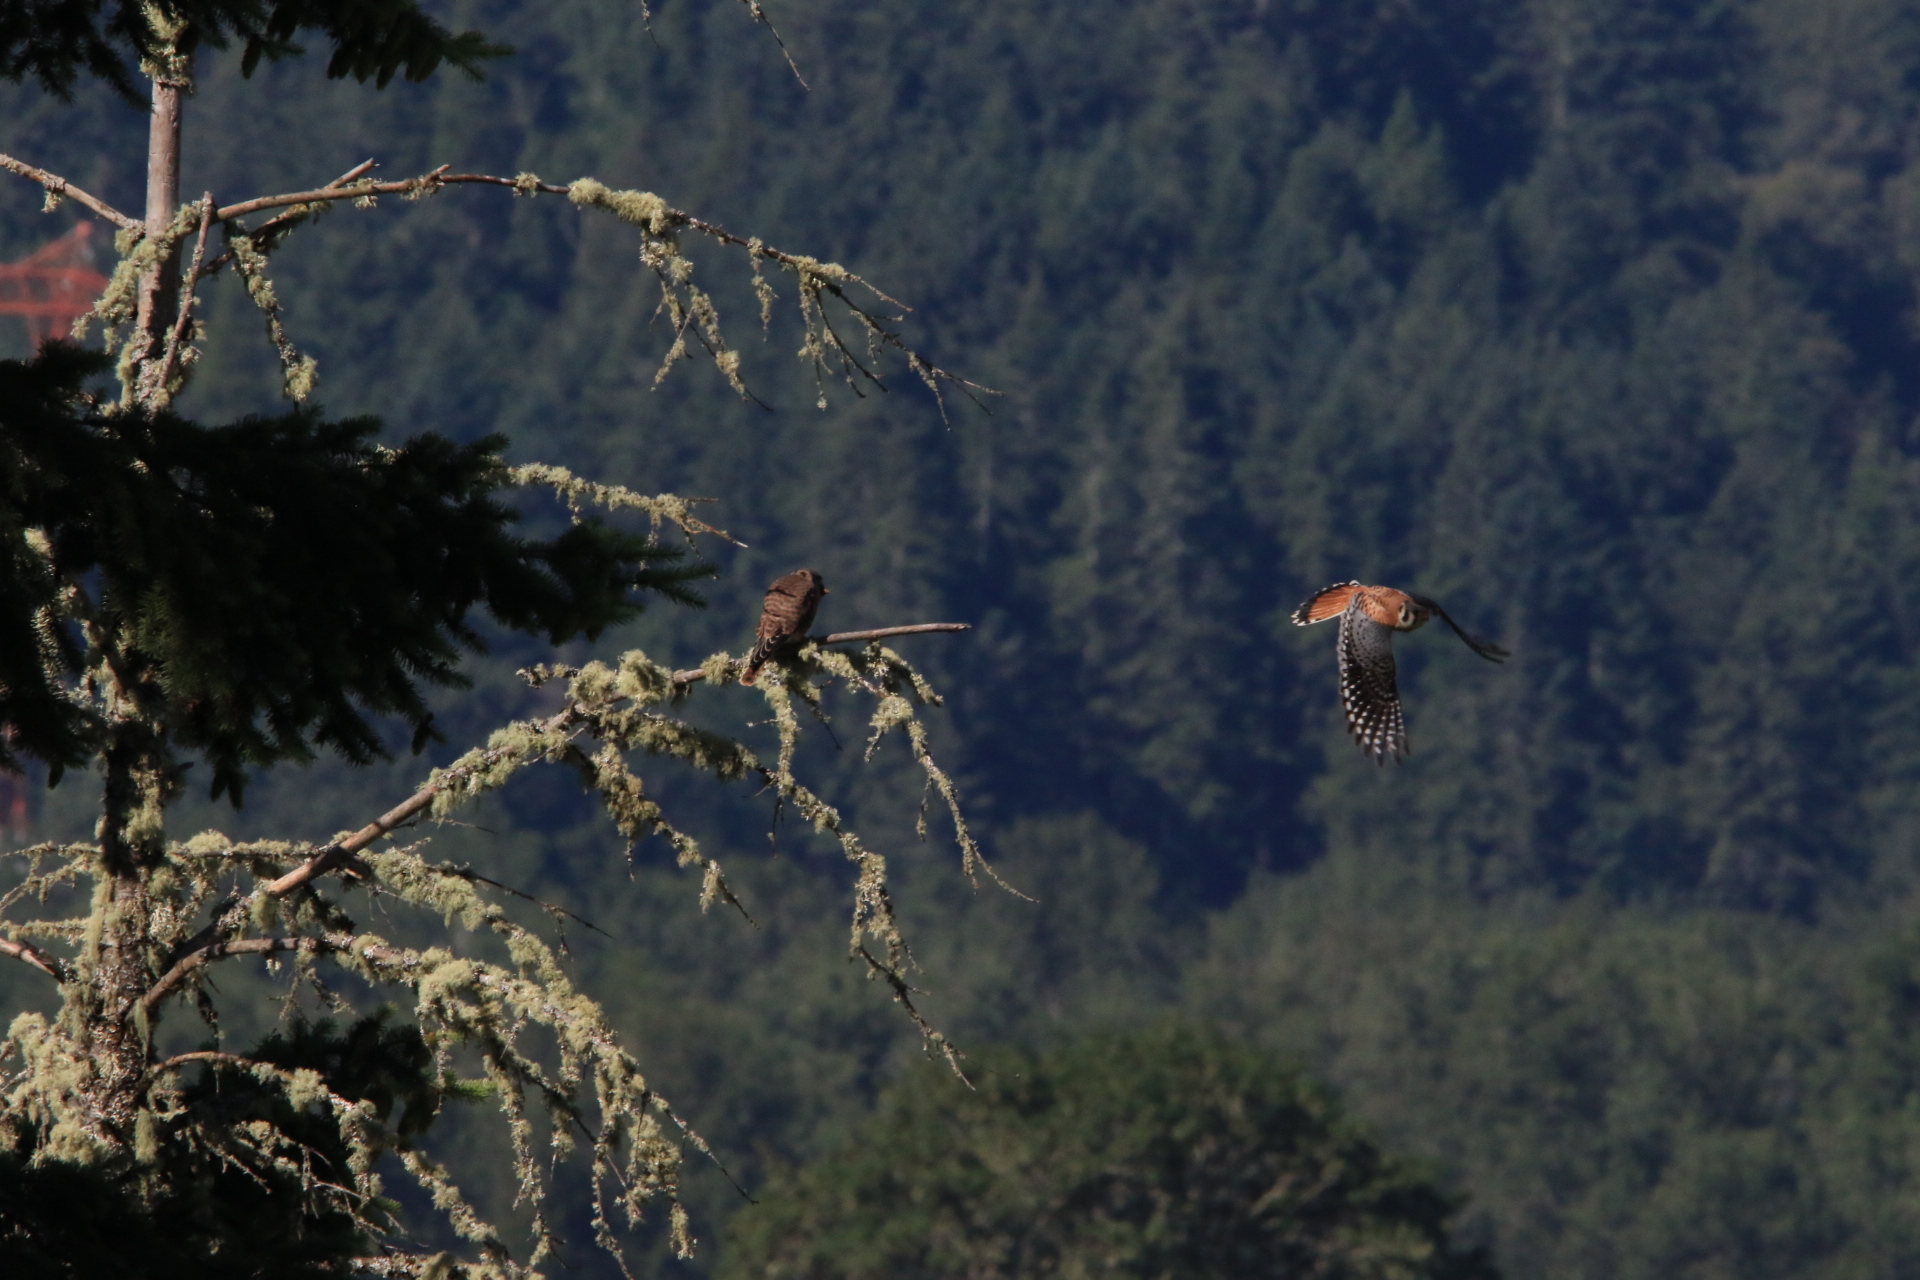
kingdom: Animalia
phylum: Chordata
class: Aves
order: Falconiformes
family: Falconidae
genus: Falco
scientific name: Falco sparverius
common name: American kestrel
